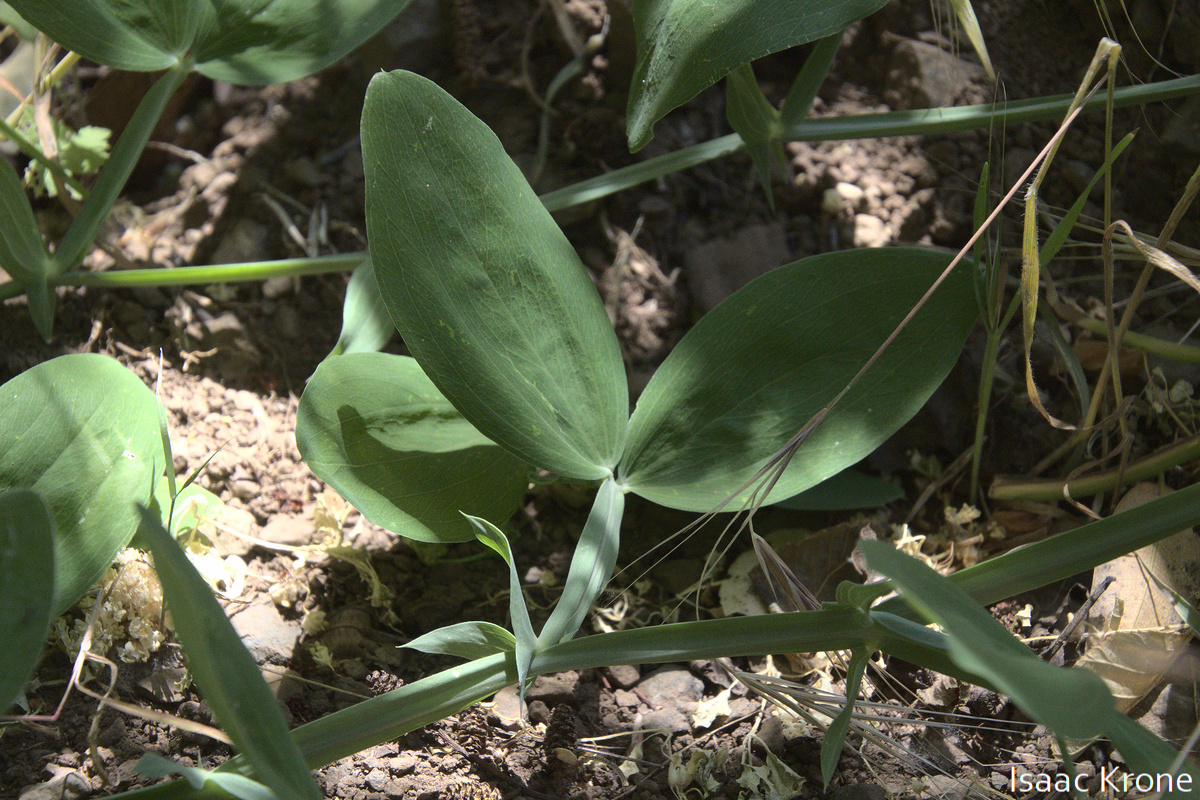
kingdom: Plantae
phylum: Tracheophyta
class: Magnoliopsida
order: Fabales
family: Fabaceae
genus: Lathyrus
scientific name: Lathyrus latifolius
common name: Perennial pea
